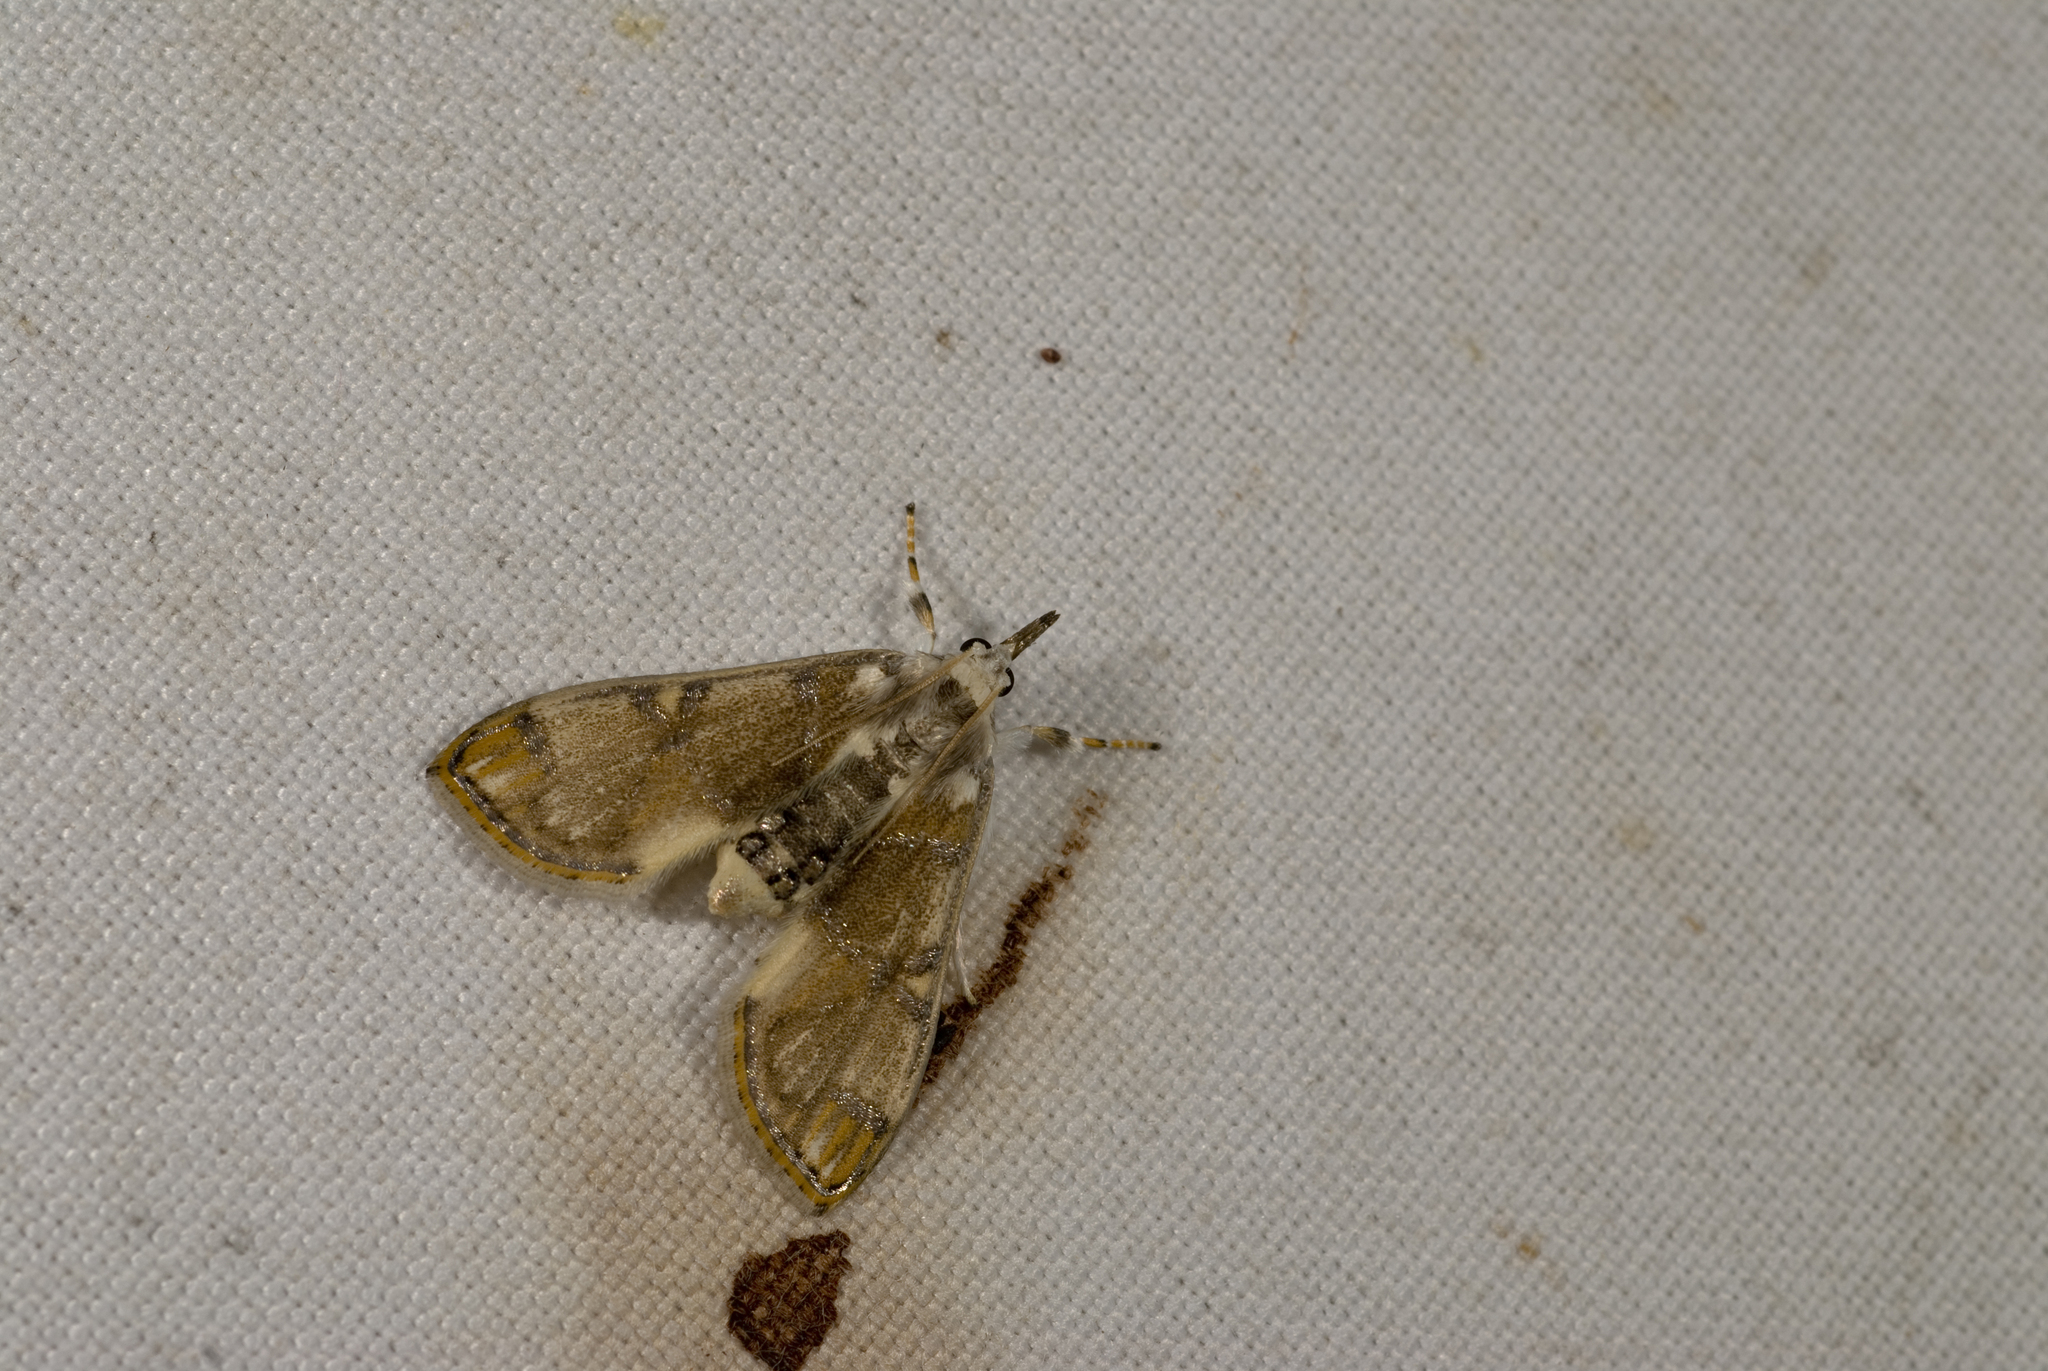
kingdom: Animalia
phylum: Arthropoda
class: Insecta
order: Lepidoptera
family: Crambidae
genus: Cirrhochrista
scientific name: Cirrhochrista fuscusa
